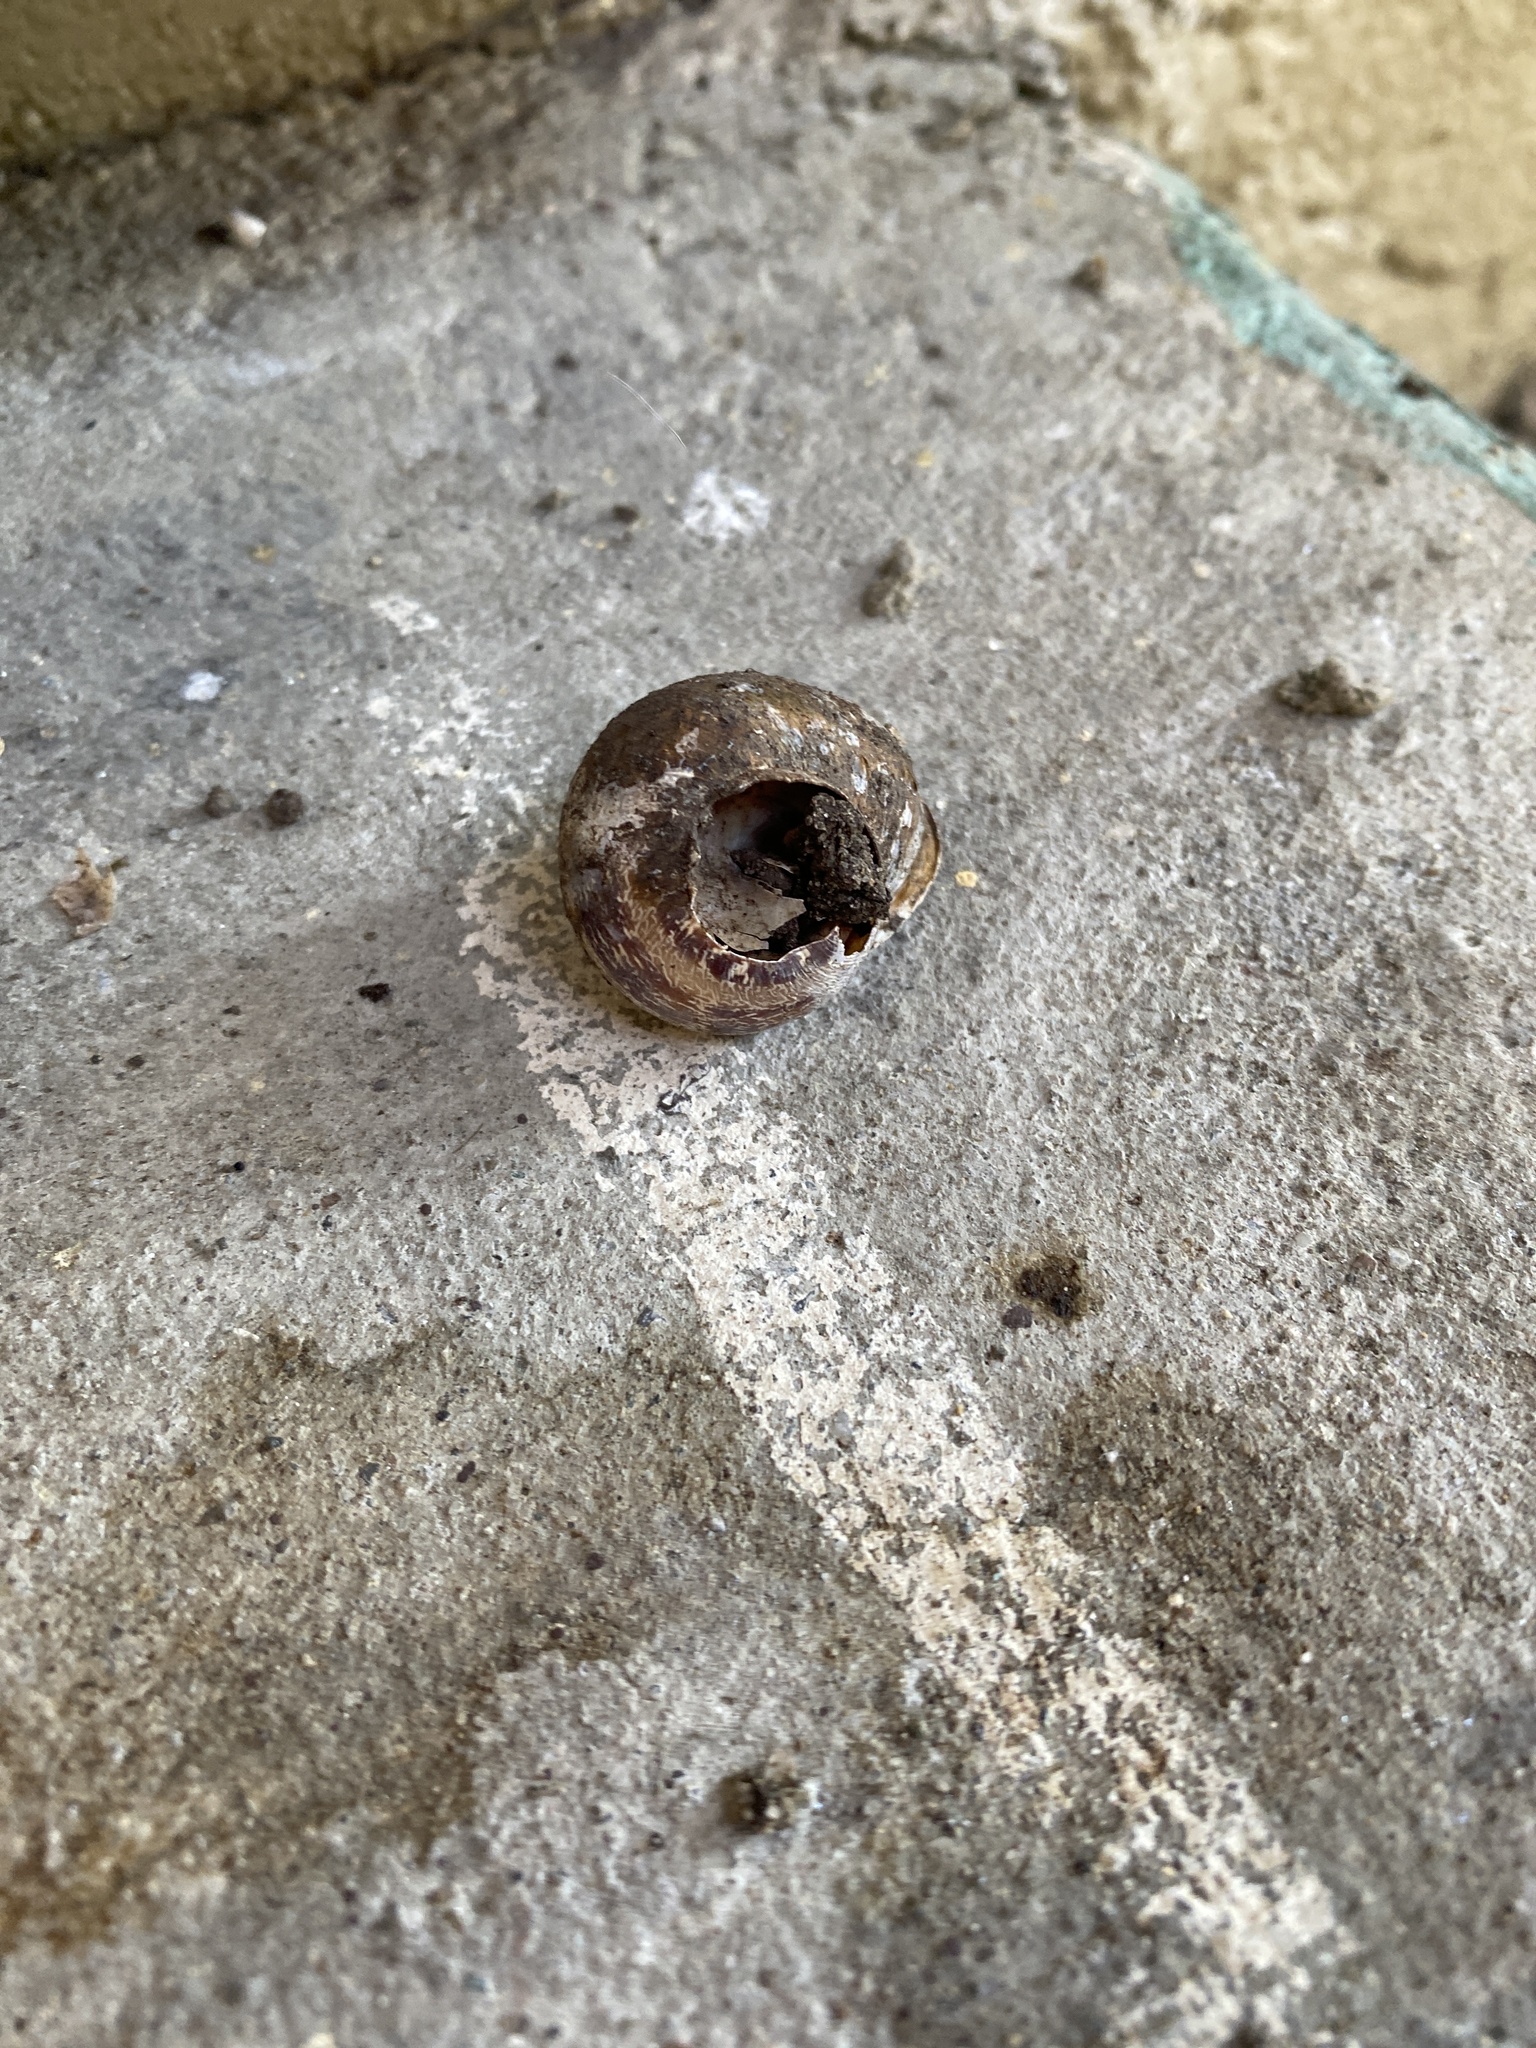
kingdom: Animalia
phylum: Mollusca
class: Gastropoda
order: Stylommatophora
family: Helicidae
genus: Cornu
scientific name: Cornu aspersum
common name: Brown garden snail
